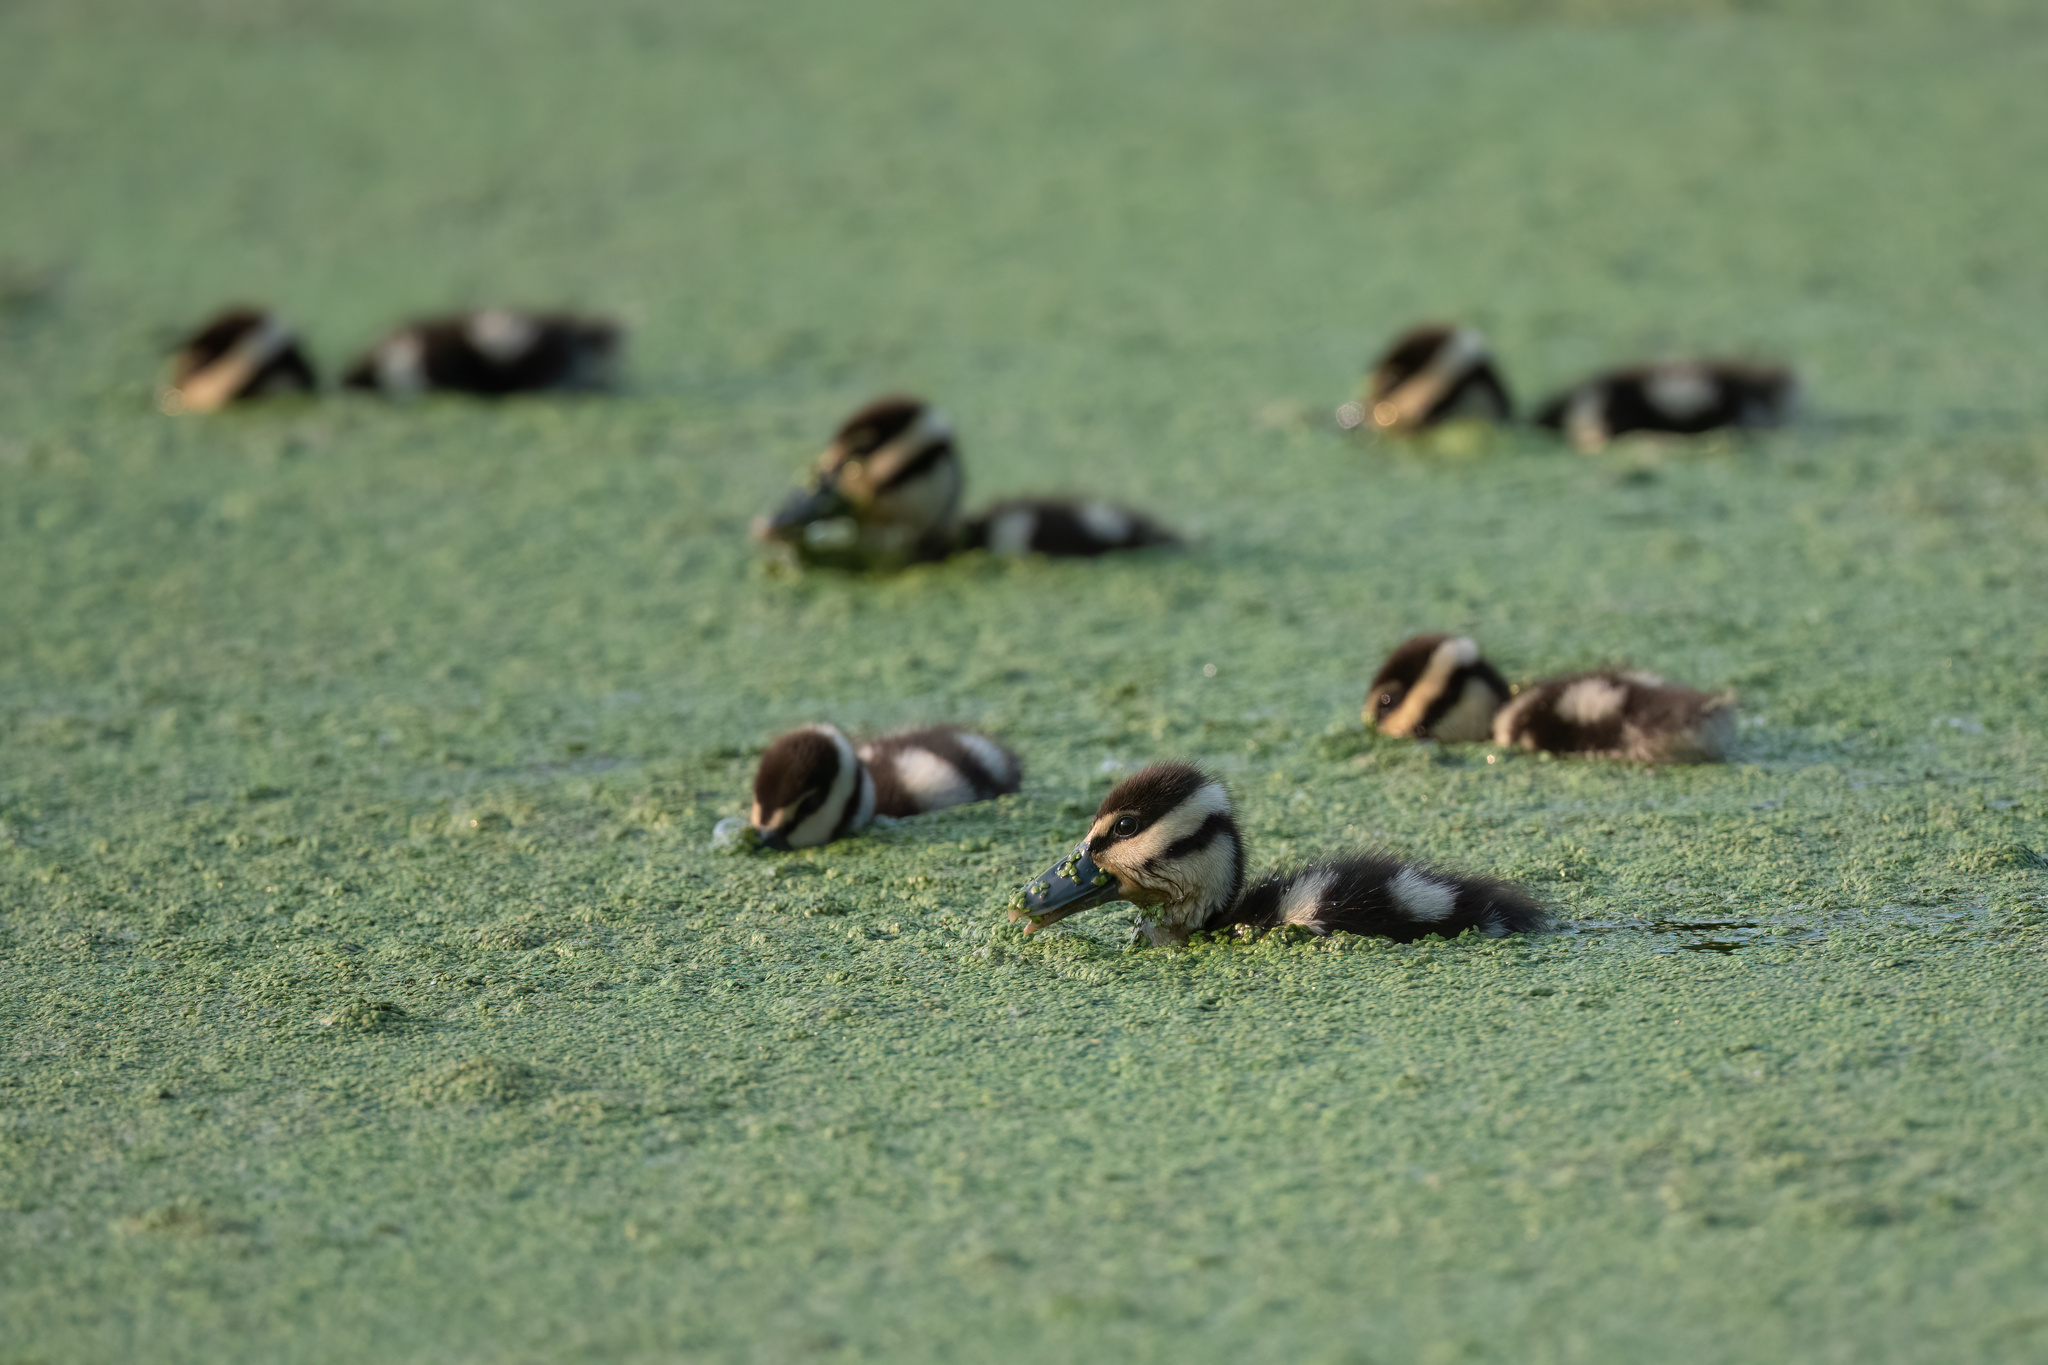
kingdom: Animalia
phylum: Chordata
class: Aves
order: Anseriformes
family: Anatidae
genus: Dendrocygna
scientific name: Dendrocygna autumnalis
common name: Black-bellied whistling duck
